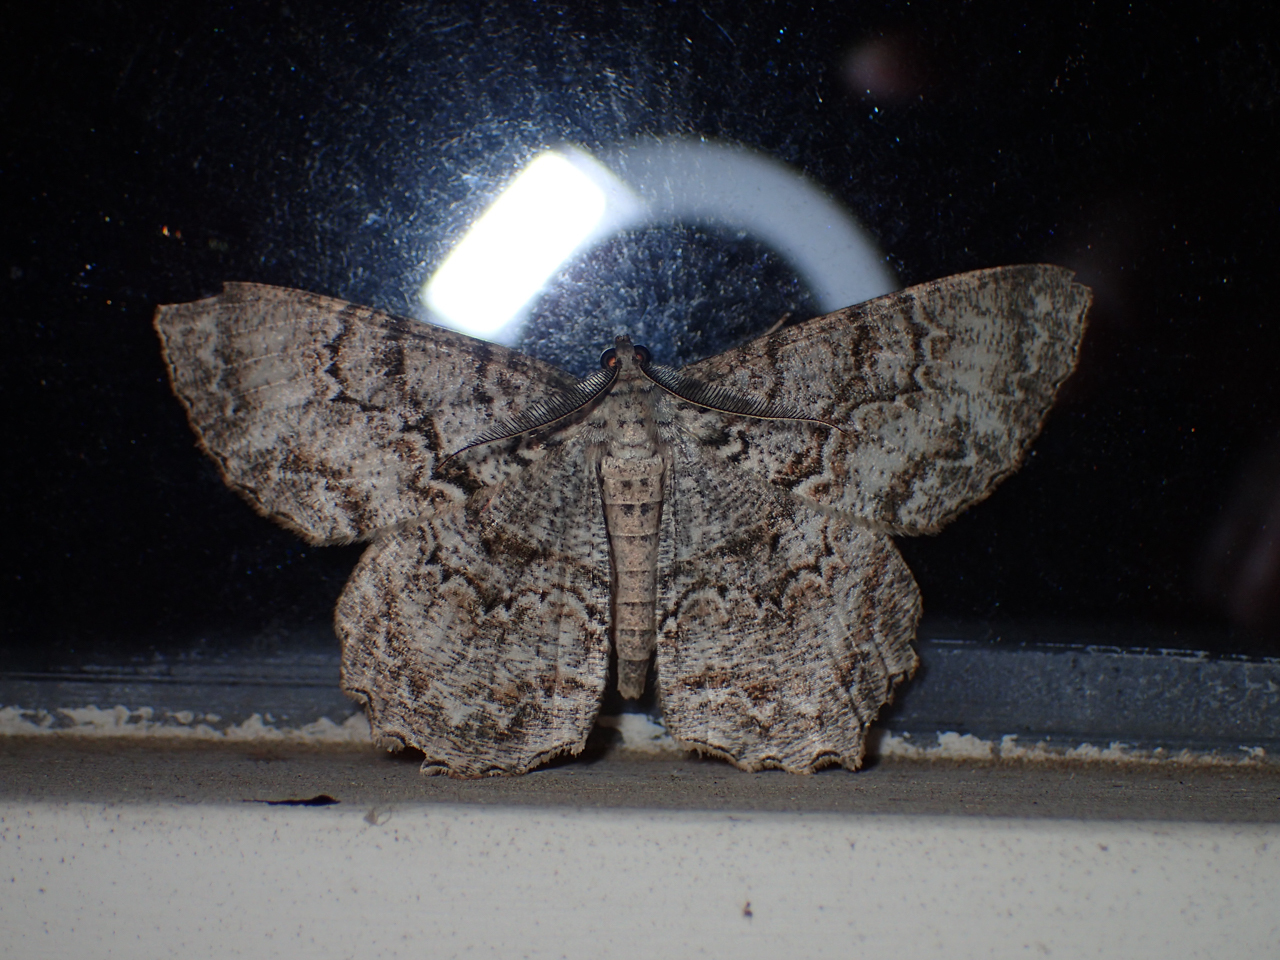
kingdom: Animalia
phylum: Arthropoda
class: Insecta
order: Lepidoptera
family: Geometridae
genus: Epimecis
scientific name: Epimecis hortaria
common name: Tulip-tree beauty
